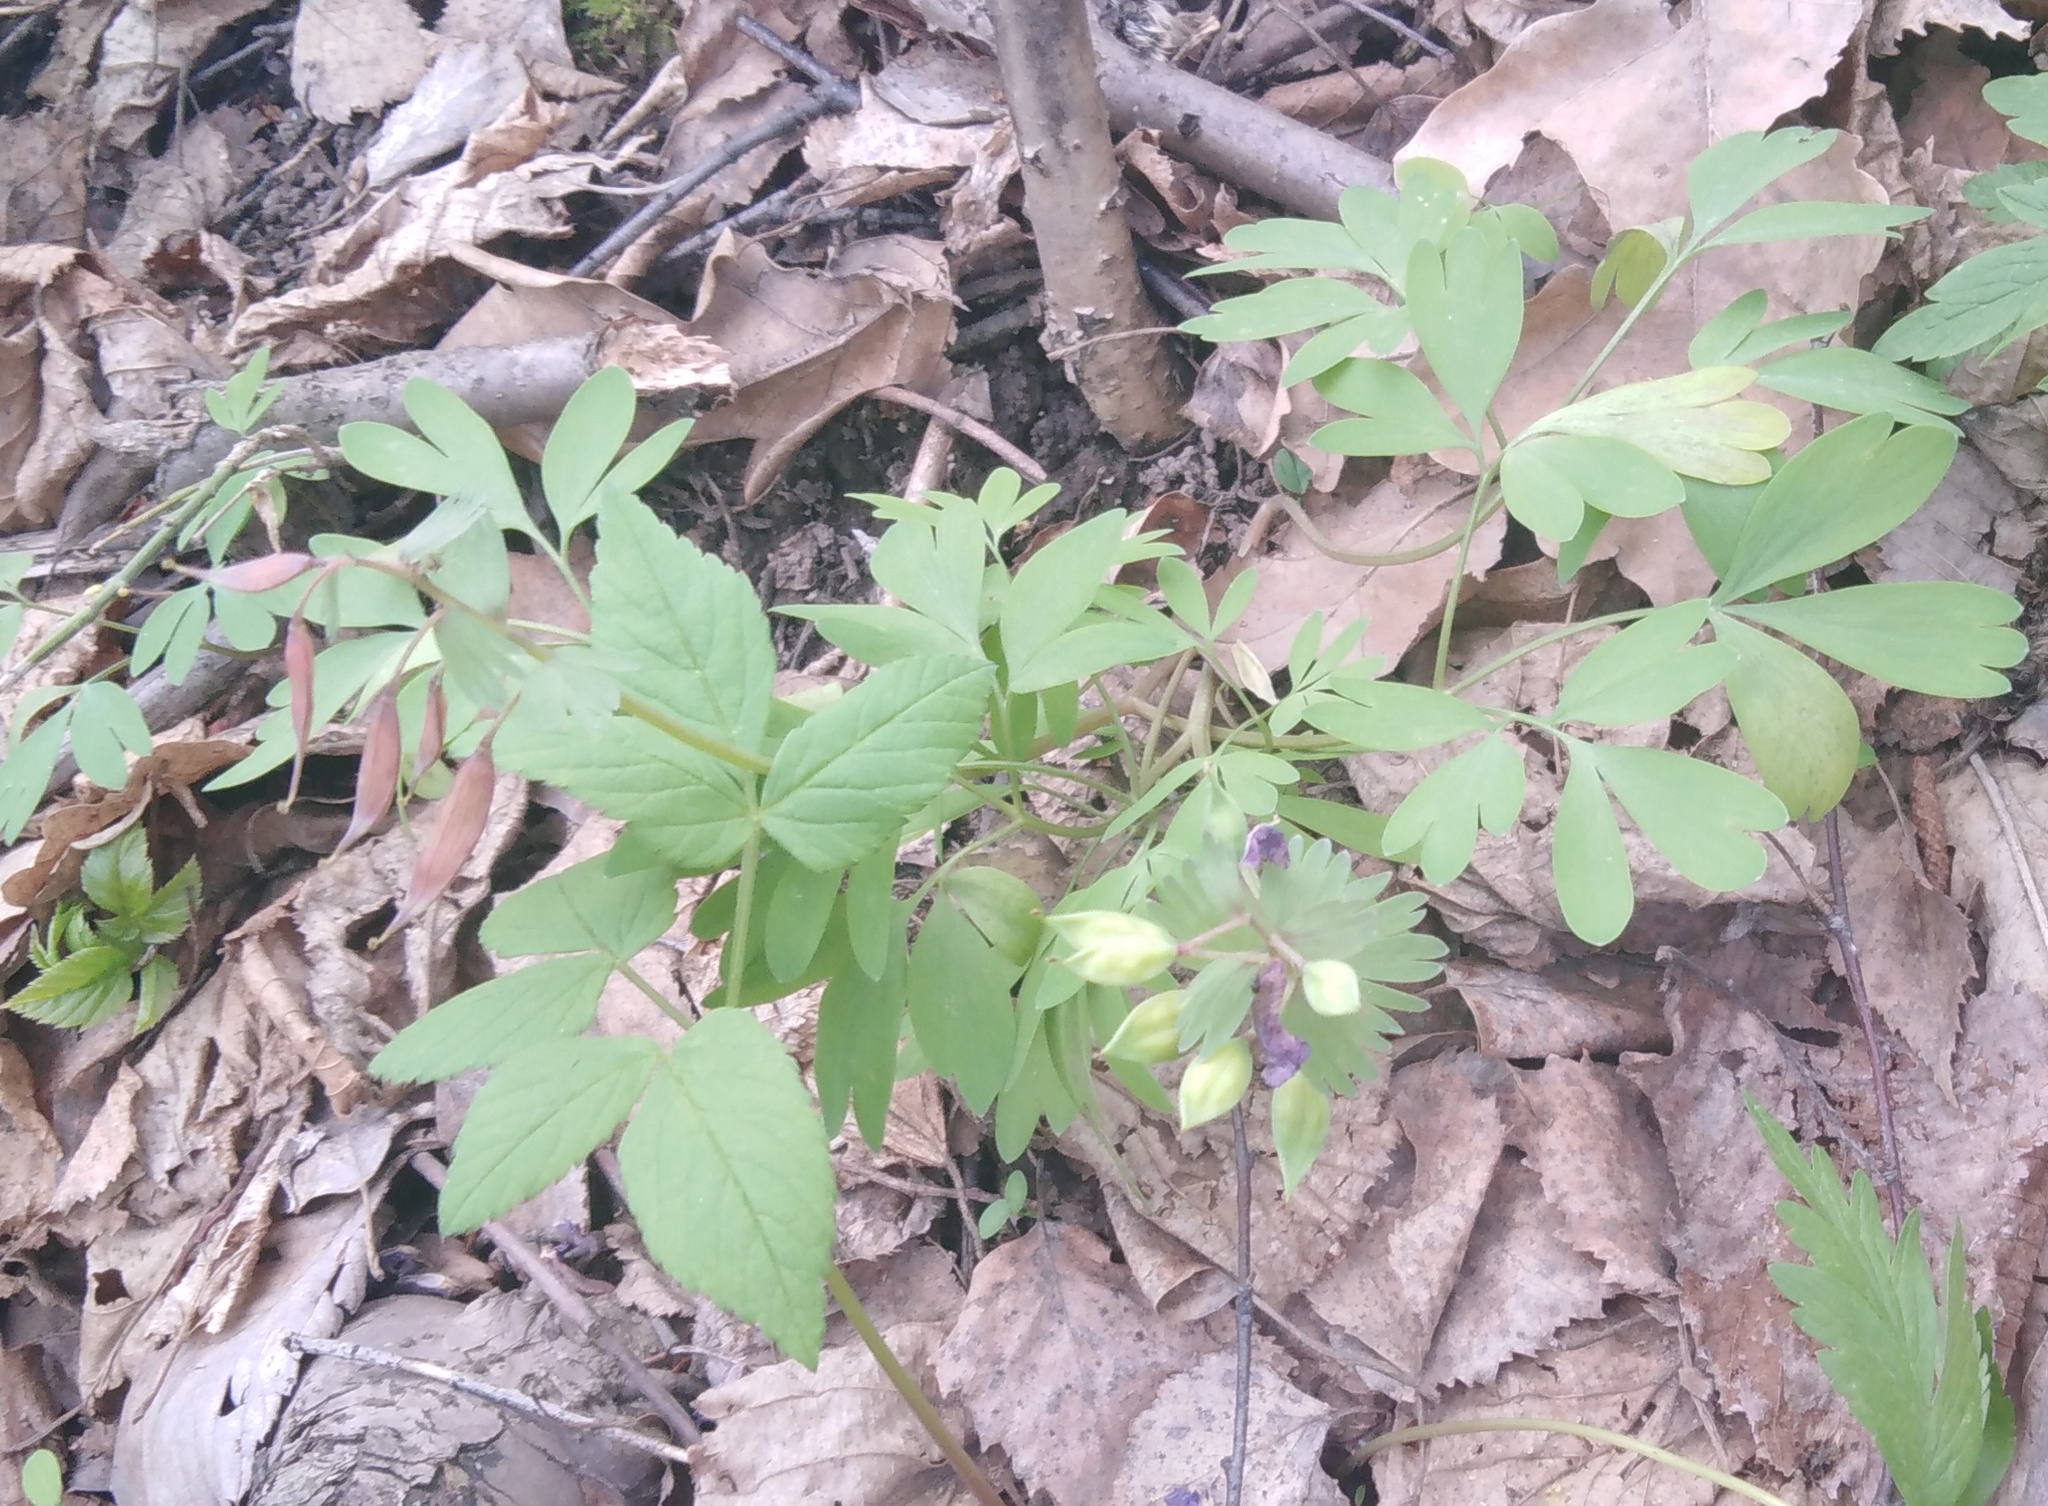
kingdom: Plantae
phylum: Tracheophyta
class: Magnoliopsida
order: Ranunculales
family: Papaveraceae
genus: Corydalis
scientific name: Corydalis solida
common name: Bird-in-a-bush
